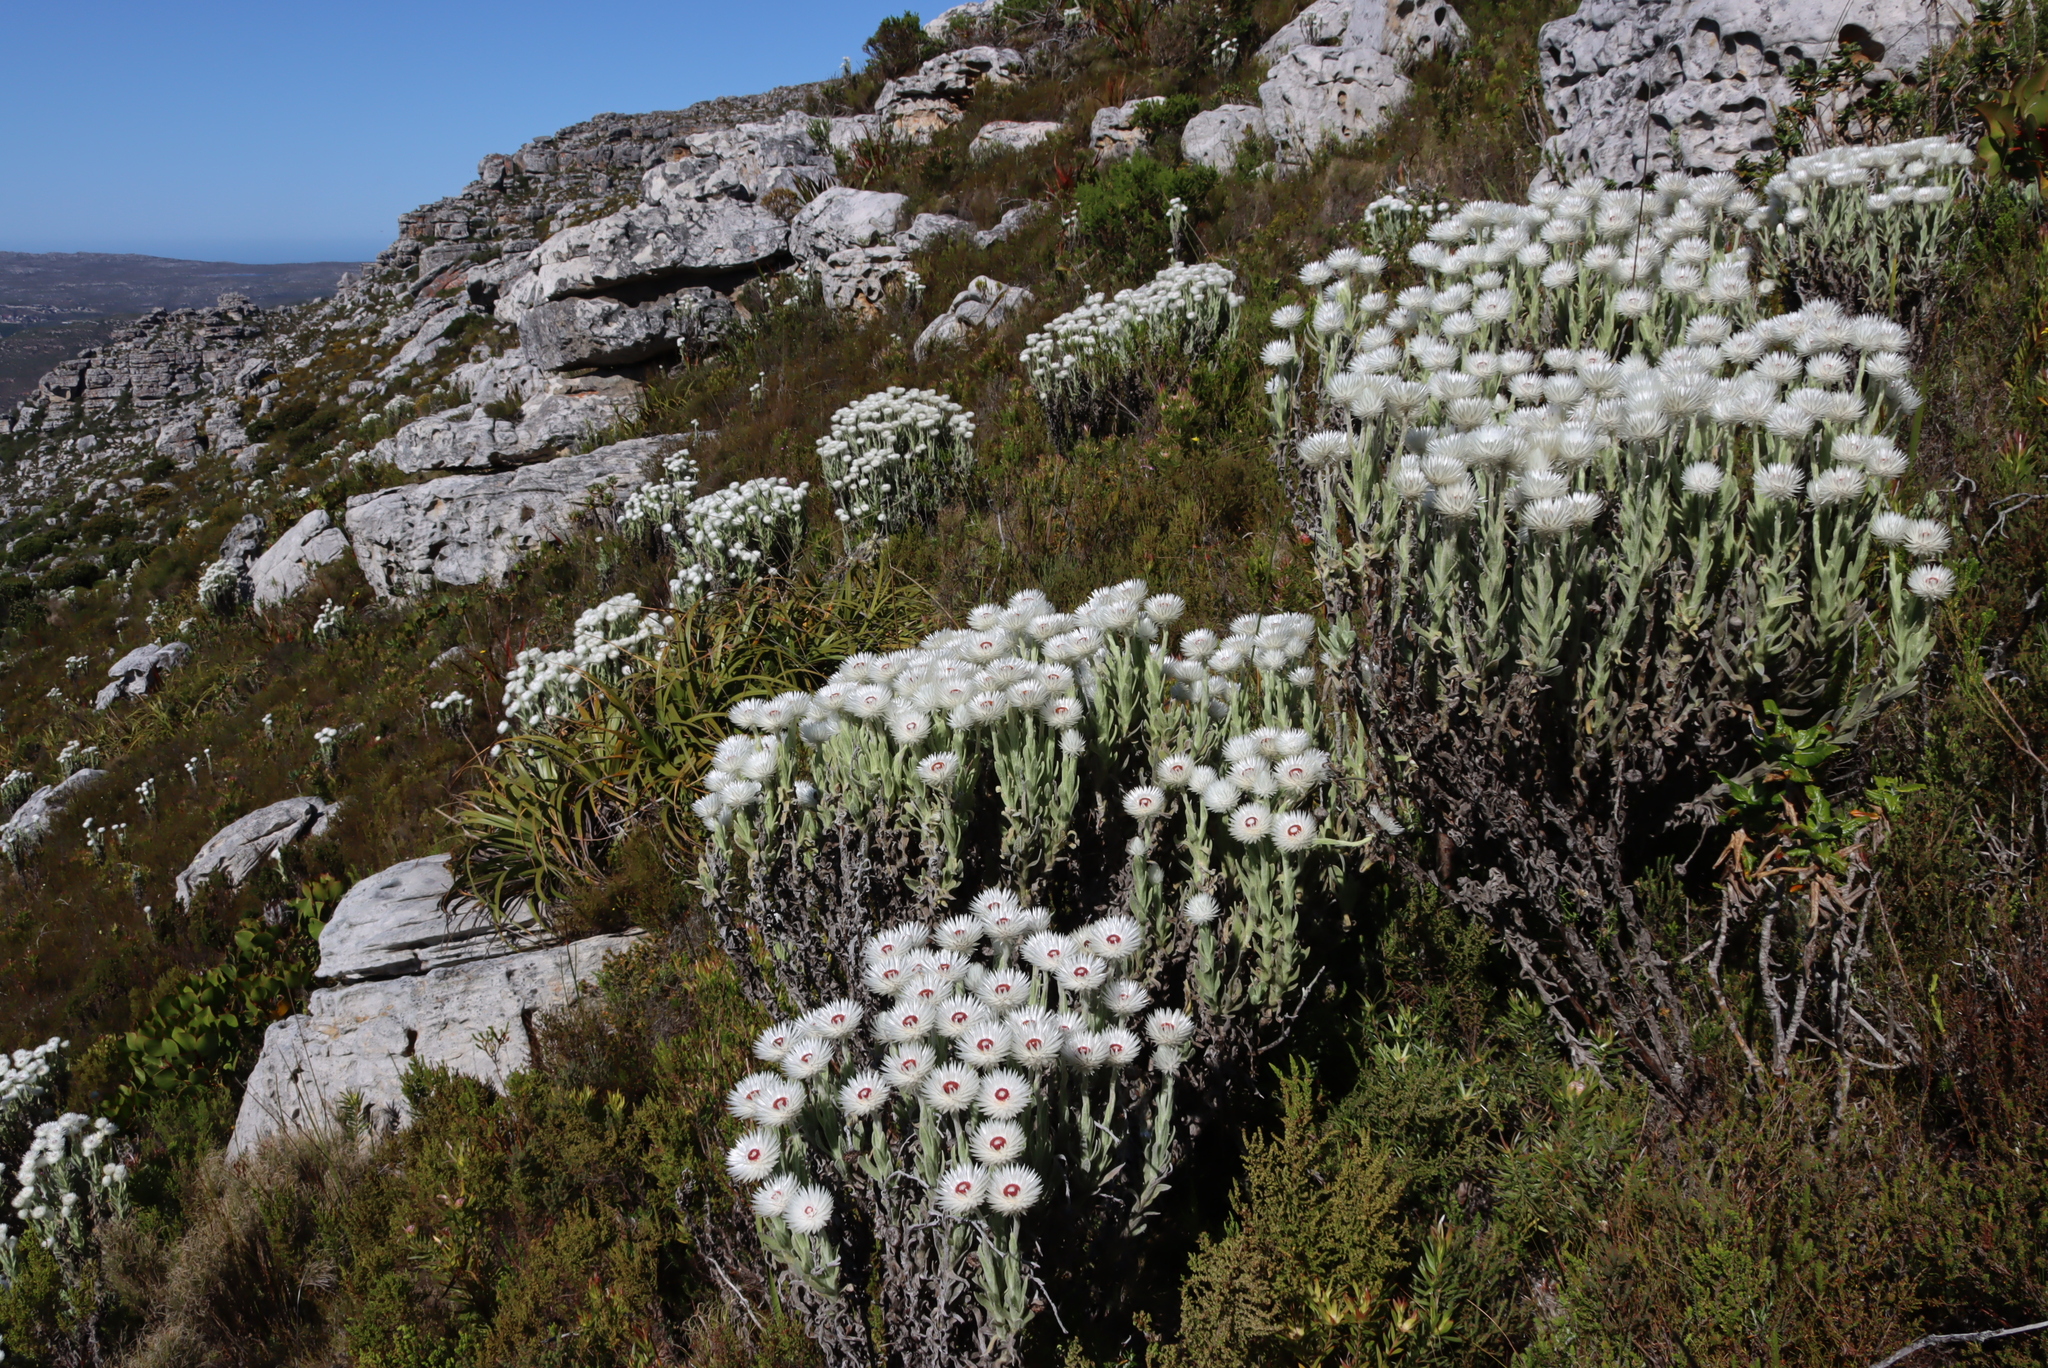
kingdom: Plantae
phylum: Tracheophyta
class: Magnoliopsida
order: Asterales
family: Asteraceae
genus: Syncarpha
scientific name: Syncarpha vestita
